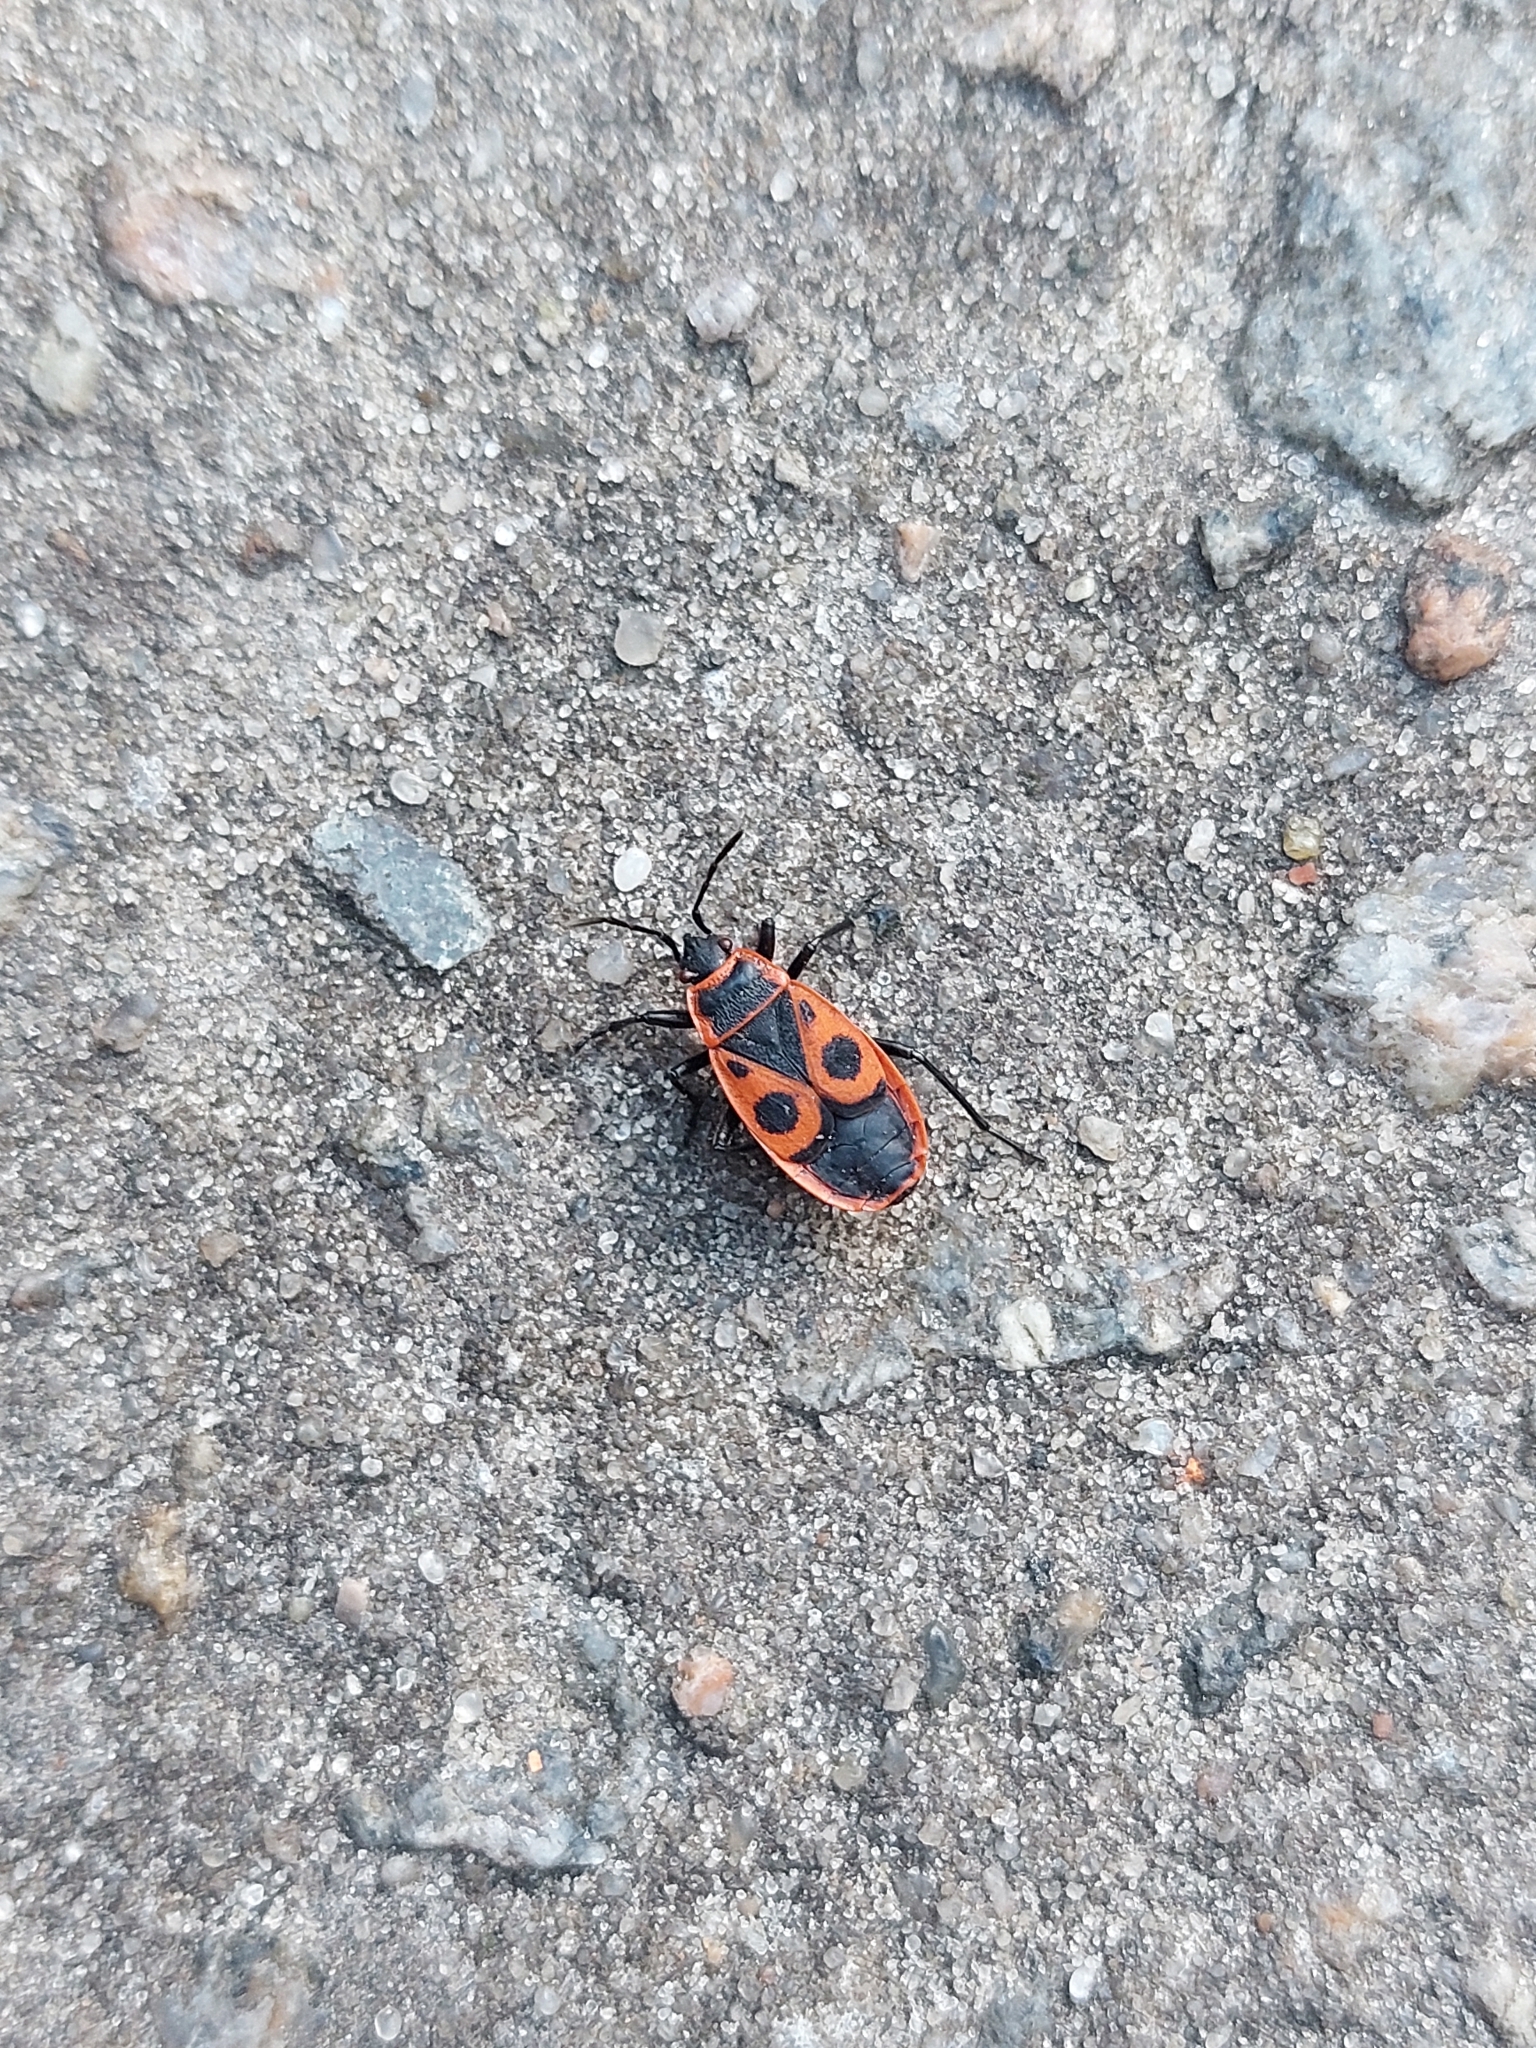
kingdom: Animalia
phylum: Arthropoda
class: Insecta
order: Hemiptera
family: Pyrrhocoridae
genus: Pyrrhocoris
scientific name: Pyrrhocoris apterus
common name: Firebug
